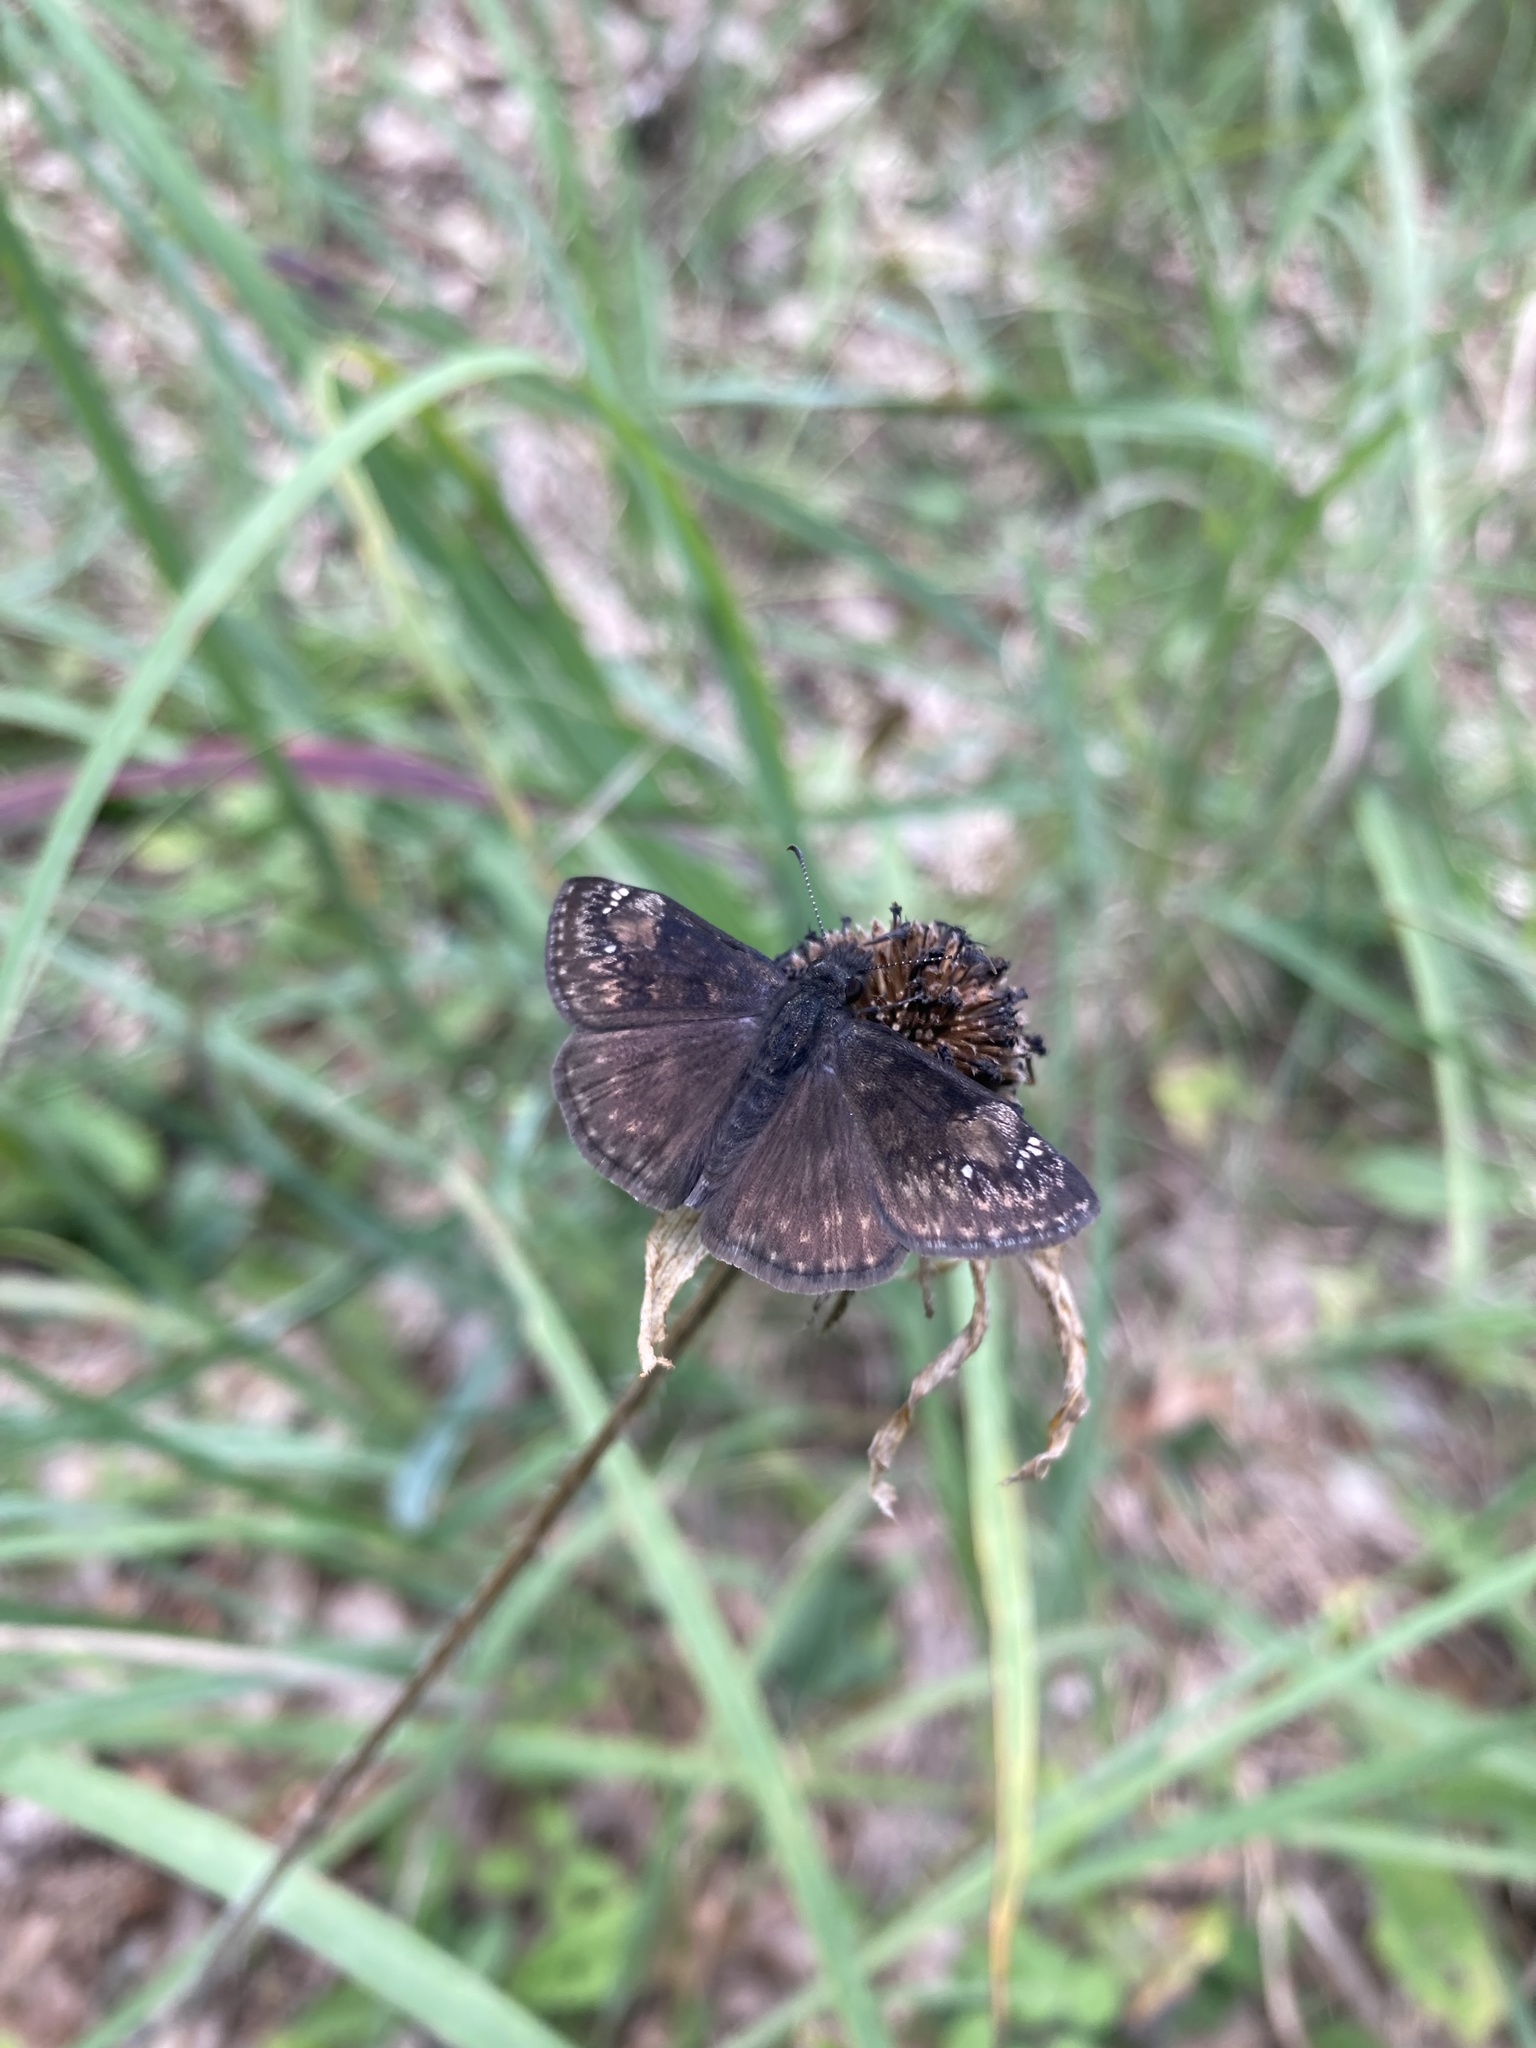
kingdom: Animalia
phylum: Arthropoda
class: Insecta
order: Lepidoptera
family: Hesperiidae
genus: Erynnis
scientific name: Erynnis baptisiae
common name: Wild indigo duskywing
